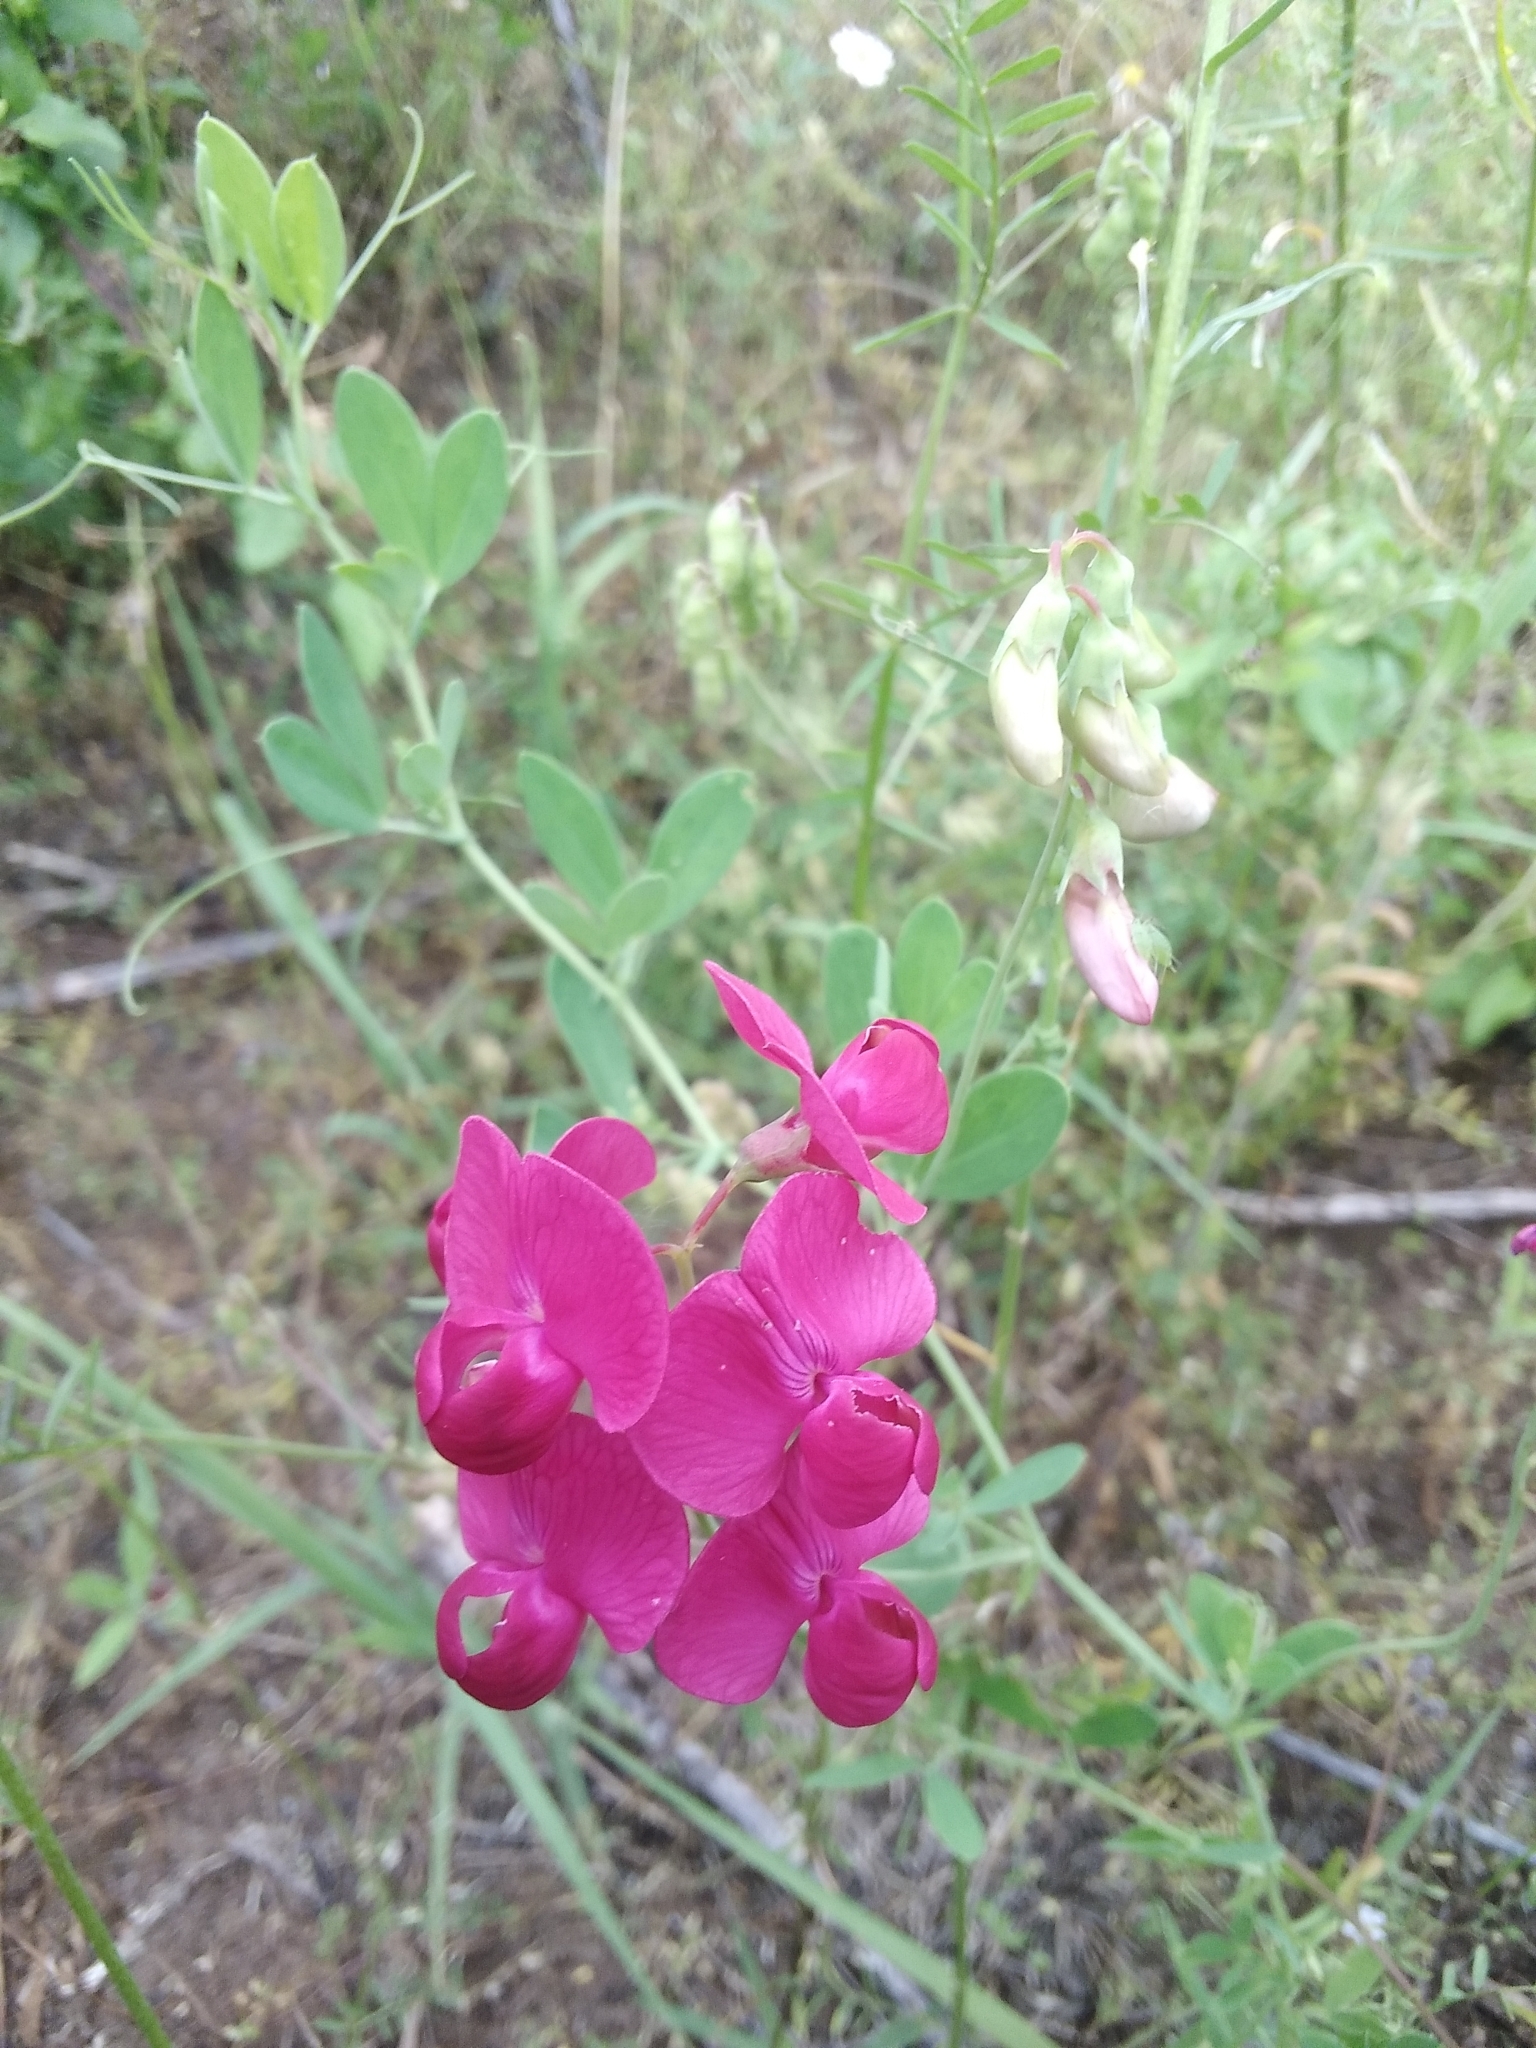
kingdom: Plantae
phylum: Tracheophyta
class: Magnoliopsida
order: Fabales
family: Fabaceae
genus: Lathyrus
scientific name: Lathyrus tuberosus
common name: Tuberous pea
